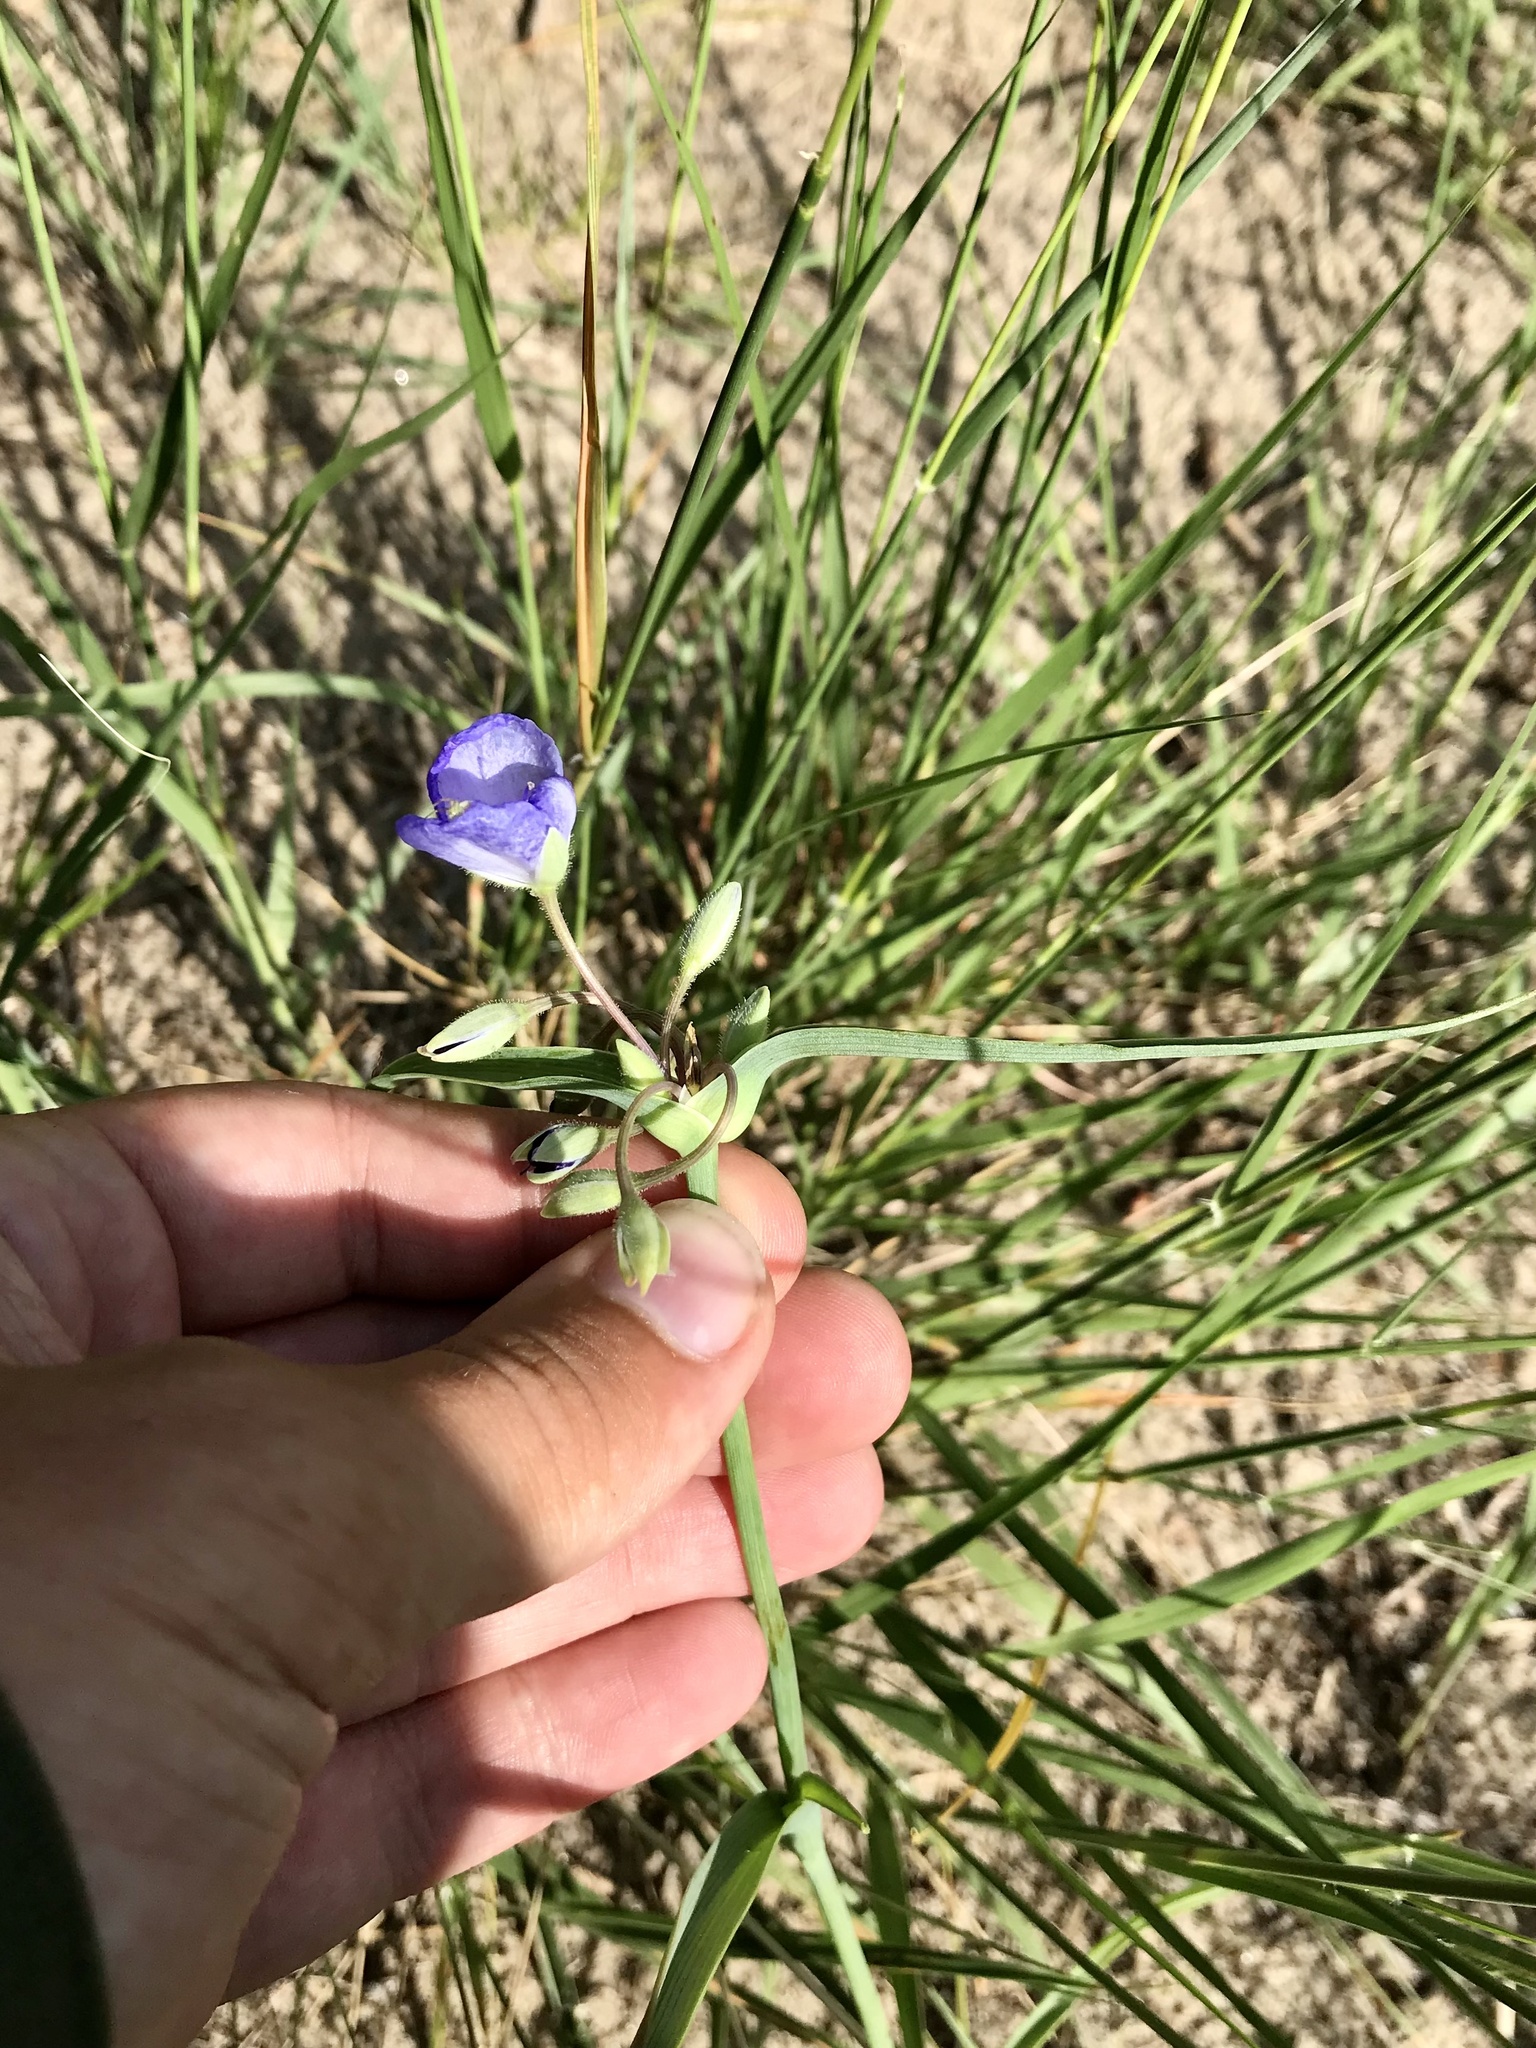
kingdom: Plantae
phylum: Tracheophyta
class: Liliopsida
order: Commelinales
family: Commelinaceae
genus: Tradescantia
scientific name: Tradescantia occidentalis
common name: Prairie spiderwort
